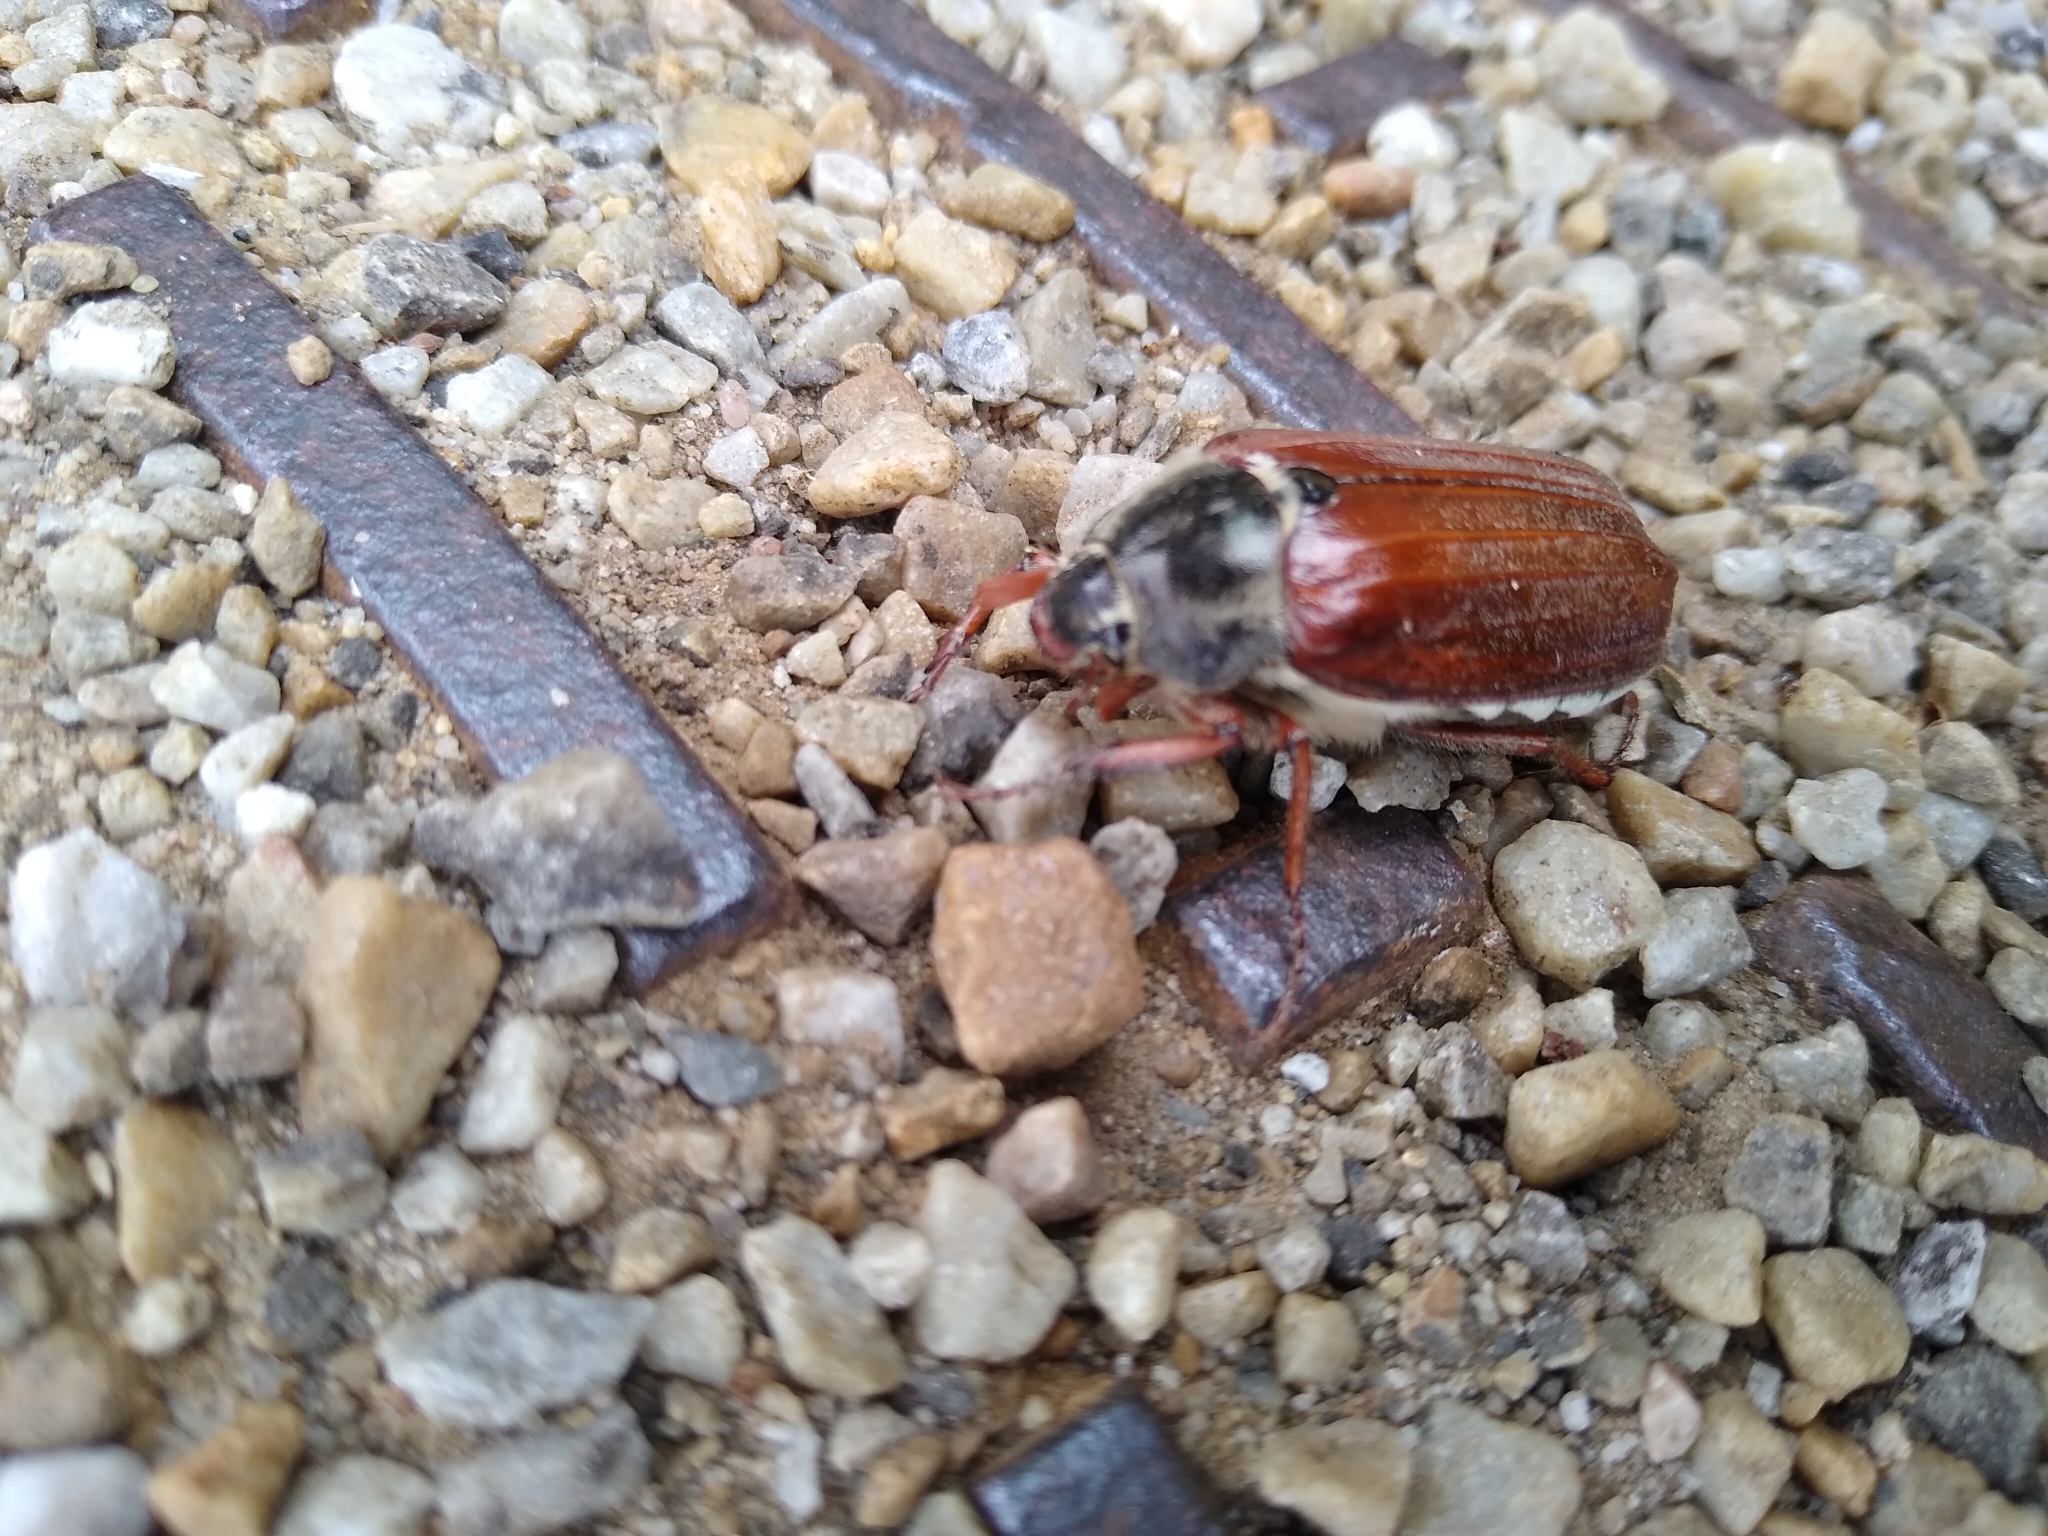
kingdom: Animalia
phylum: Arthropoda
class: Insecta
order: Coleoptera
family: Scarabaeidae
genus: Melolontha
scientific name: Melolontha melolontha
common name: Cockchafer maybeetle
